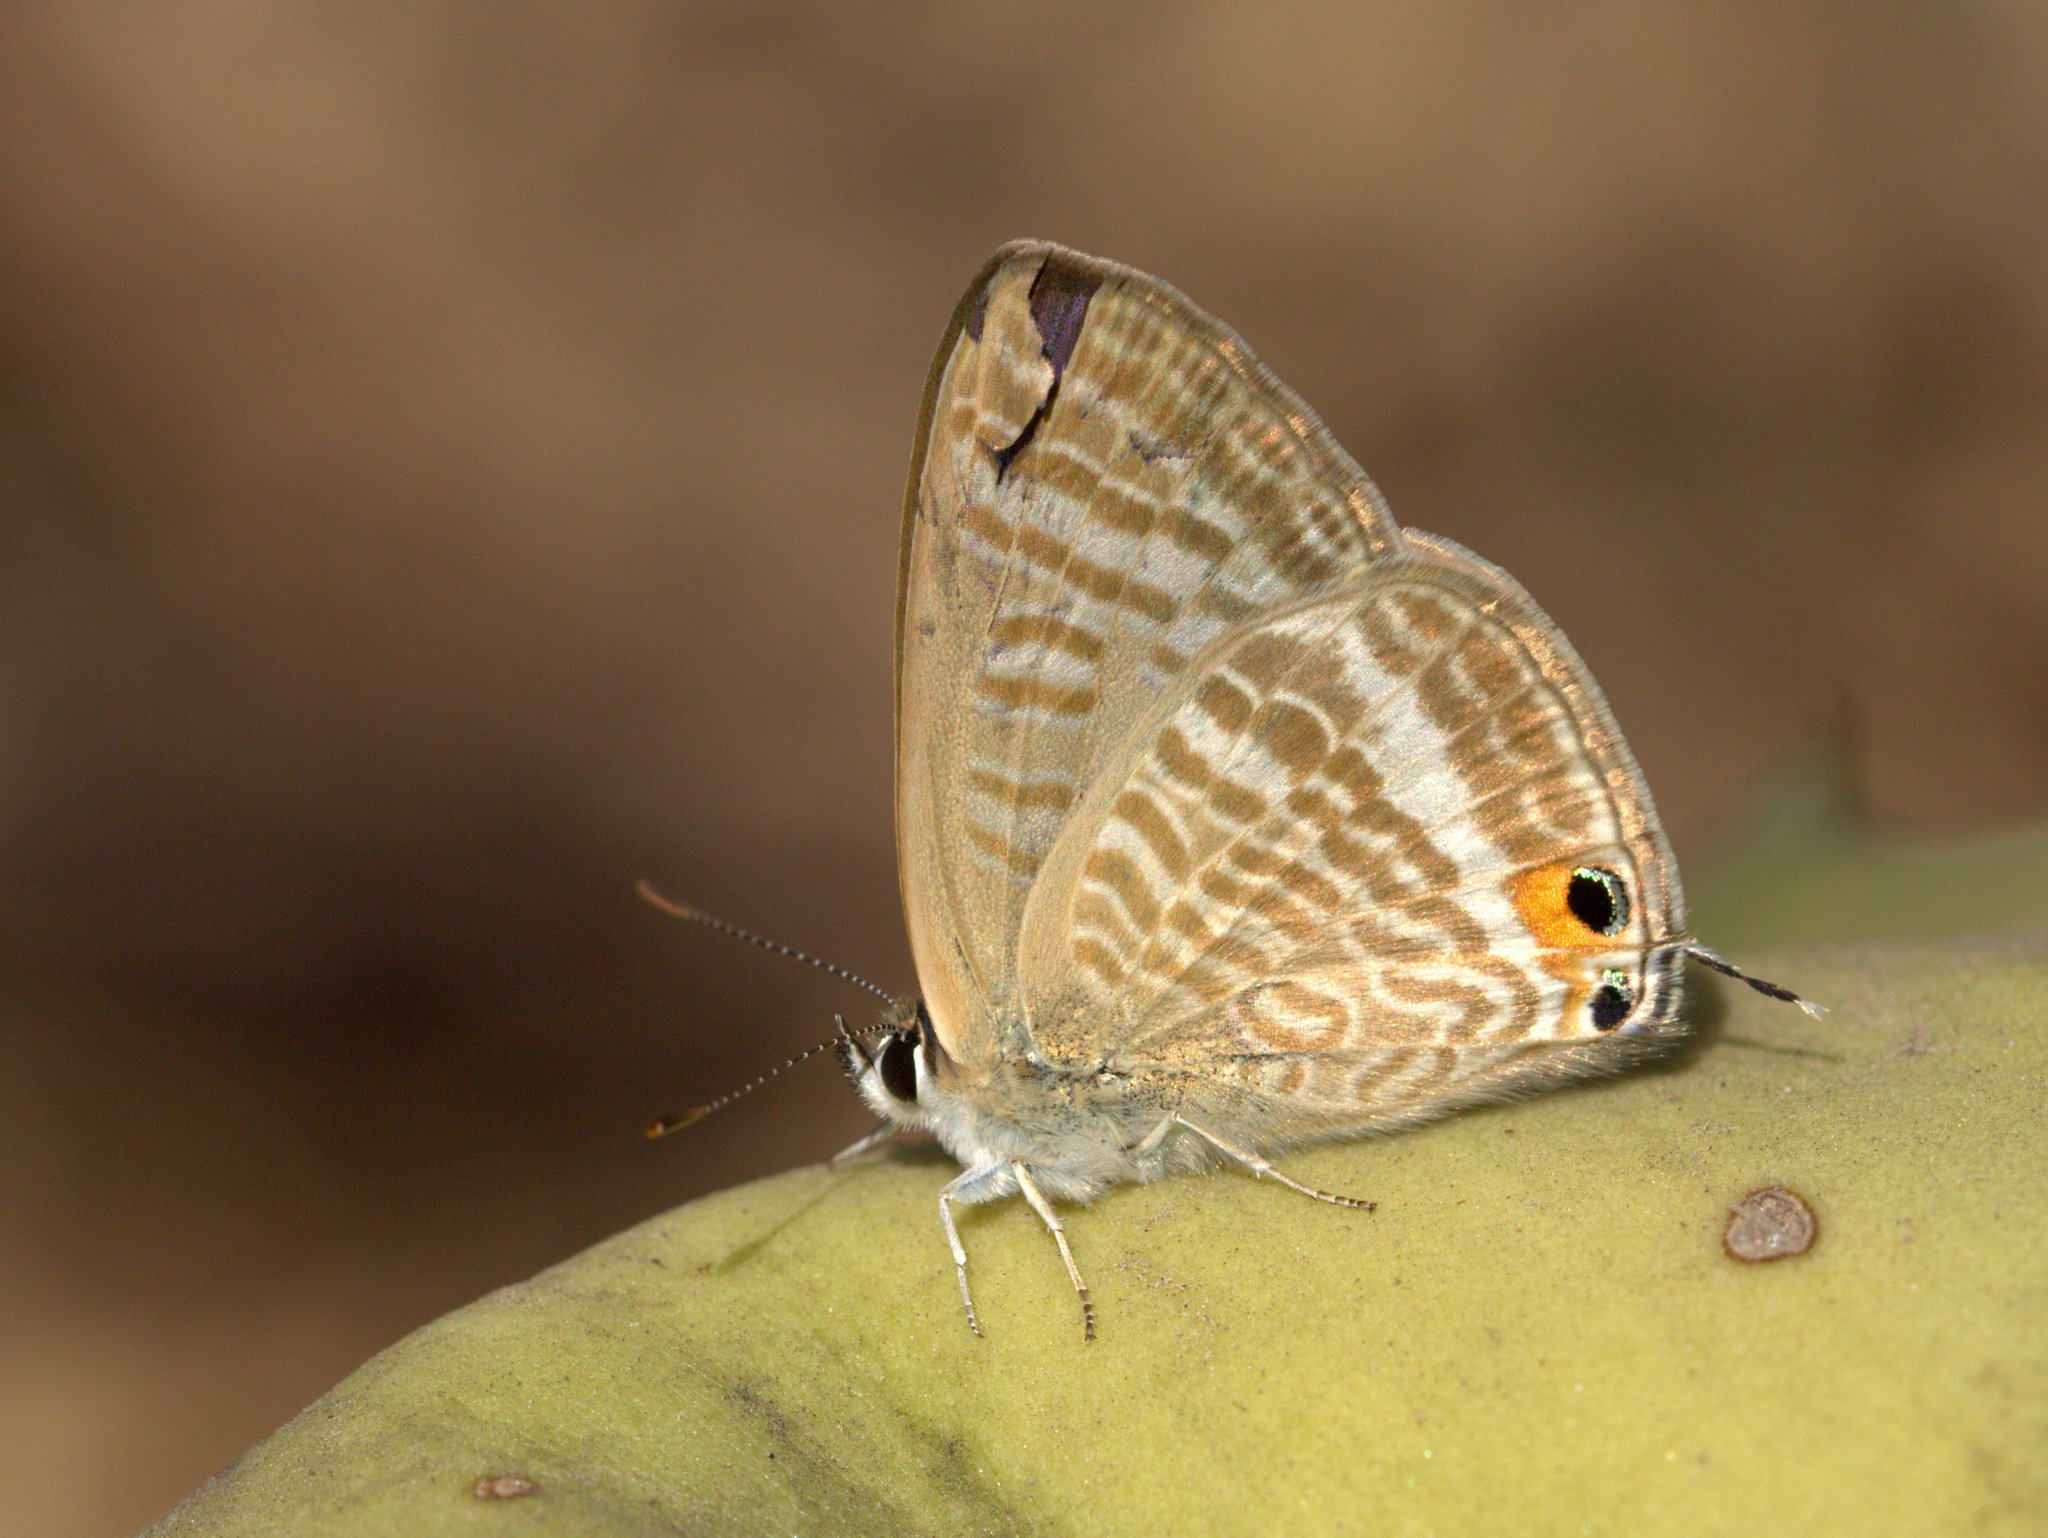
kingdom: Animalia
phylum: Arthropoda
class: Insecta
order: Lepidoptera
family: Lycaenidae
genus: Lampides
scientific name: Lampides boeticus
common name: Long-tailed blue
